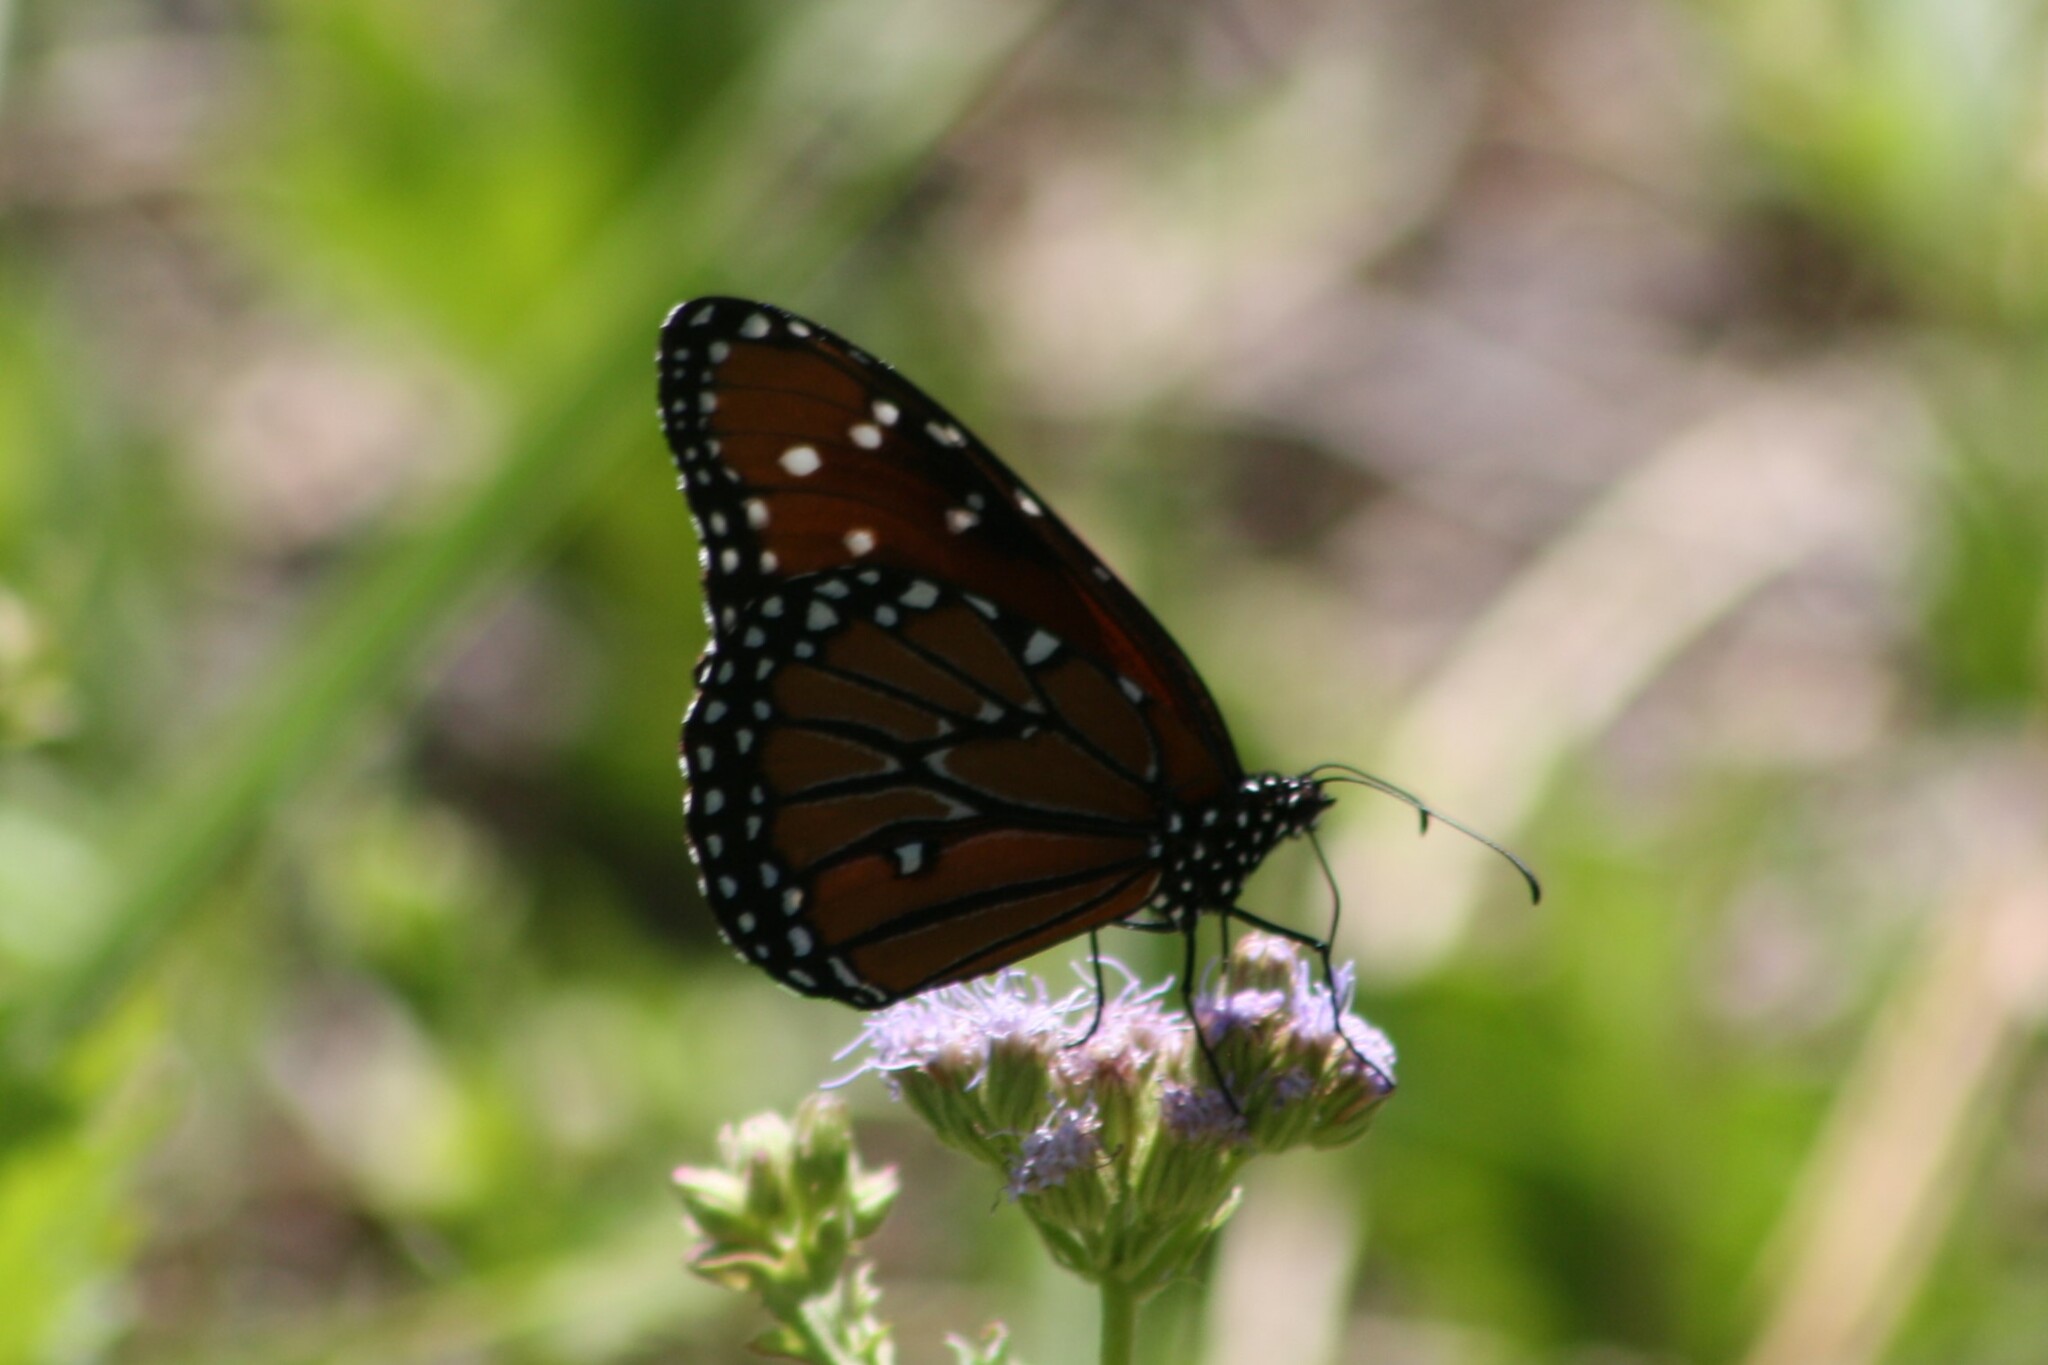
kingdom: Animalia
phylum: Arthropoda
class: Insecta
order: Lepidoptera
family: Nymphalidae
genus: Danaus
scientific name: Danaus gilippus
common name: Queen
